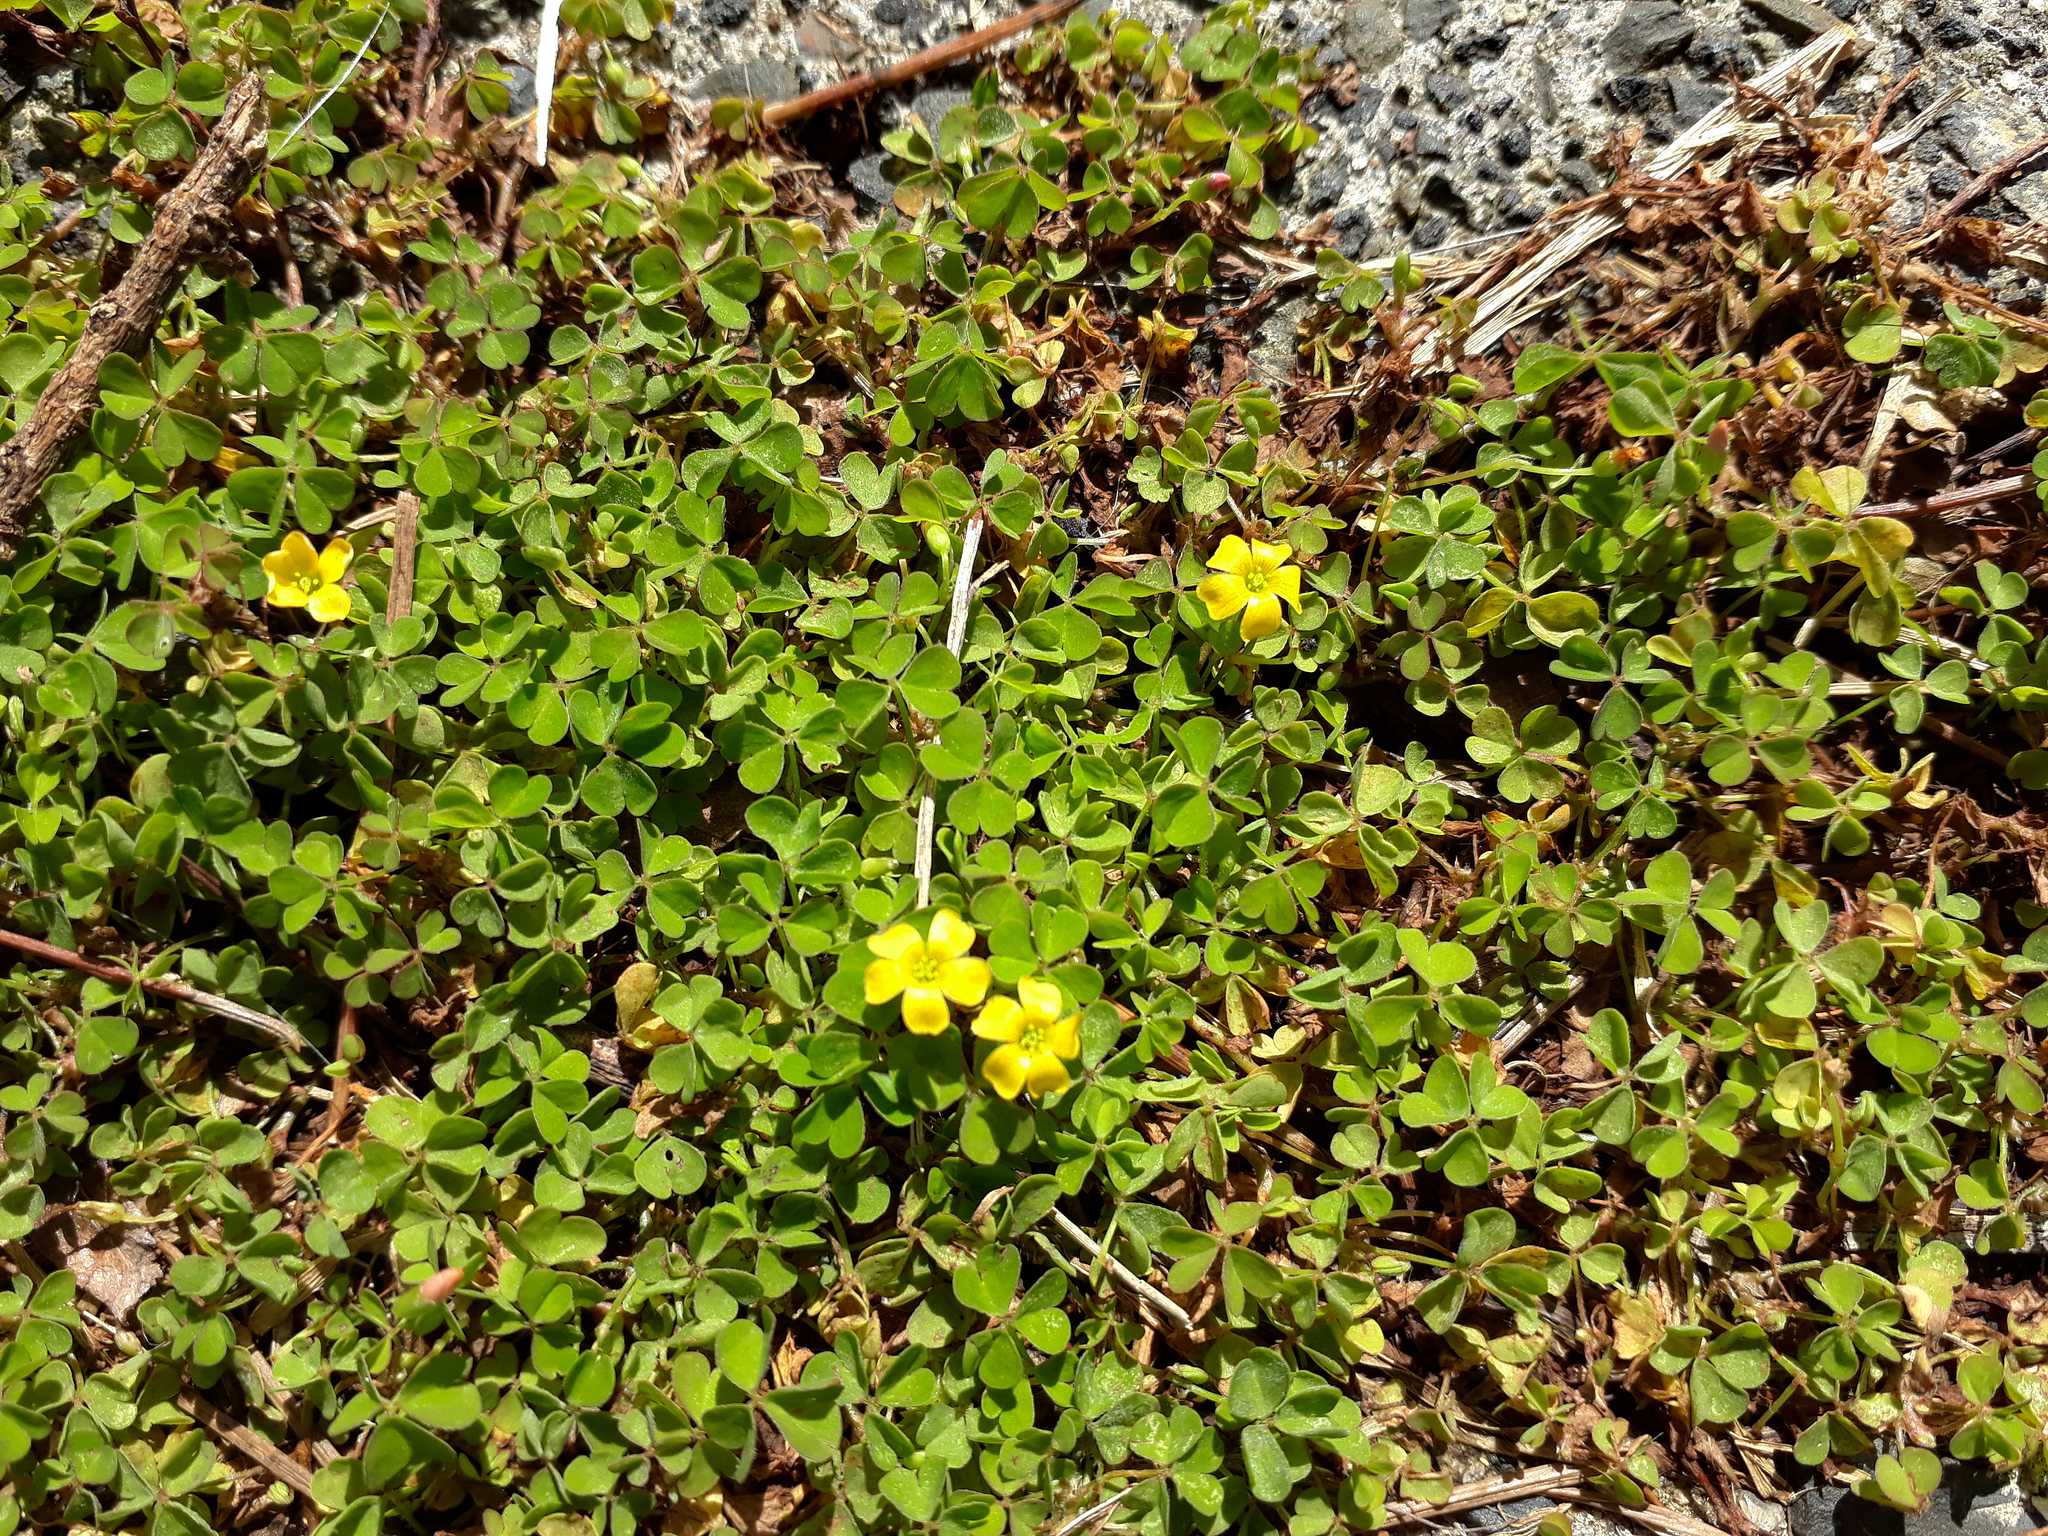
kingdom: Plantae
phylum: Tracheophyta
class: Magnoliopsida
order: Oxalidales
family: Oxalidaceae
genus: Oxalis
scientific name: Oxalis exilis
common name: Least yellow-sorrel
